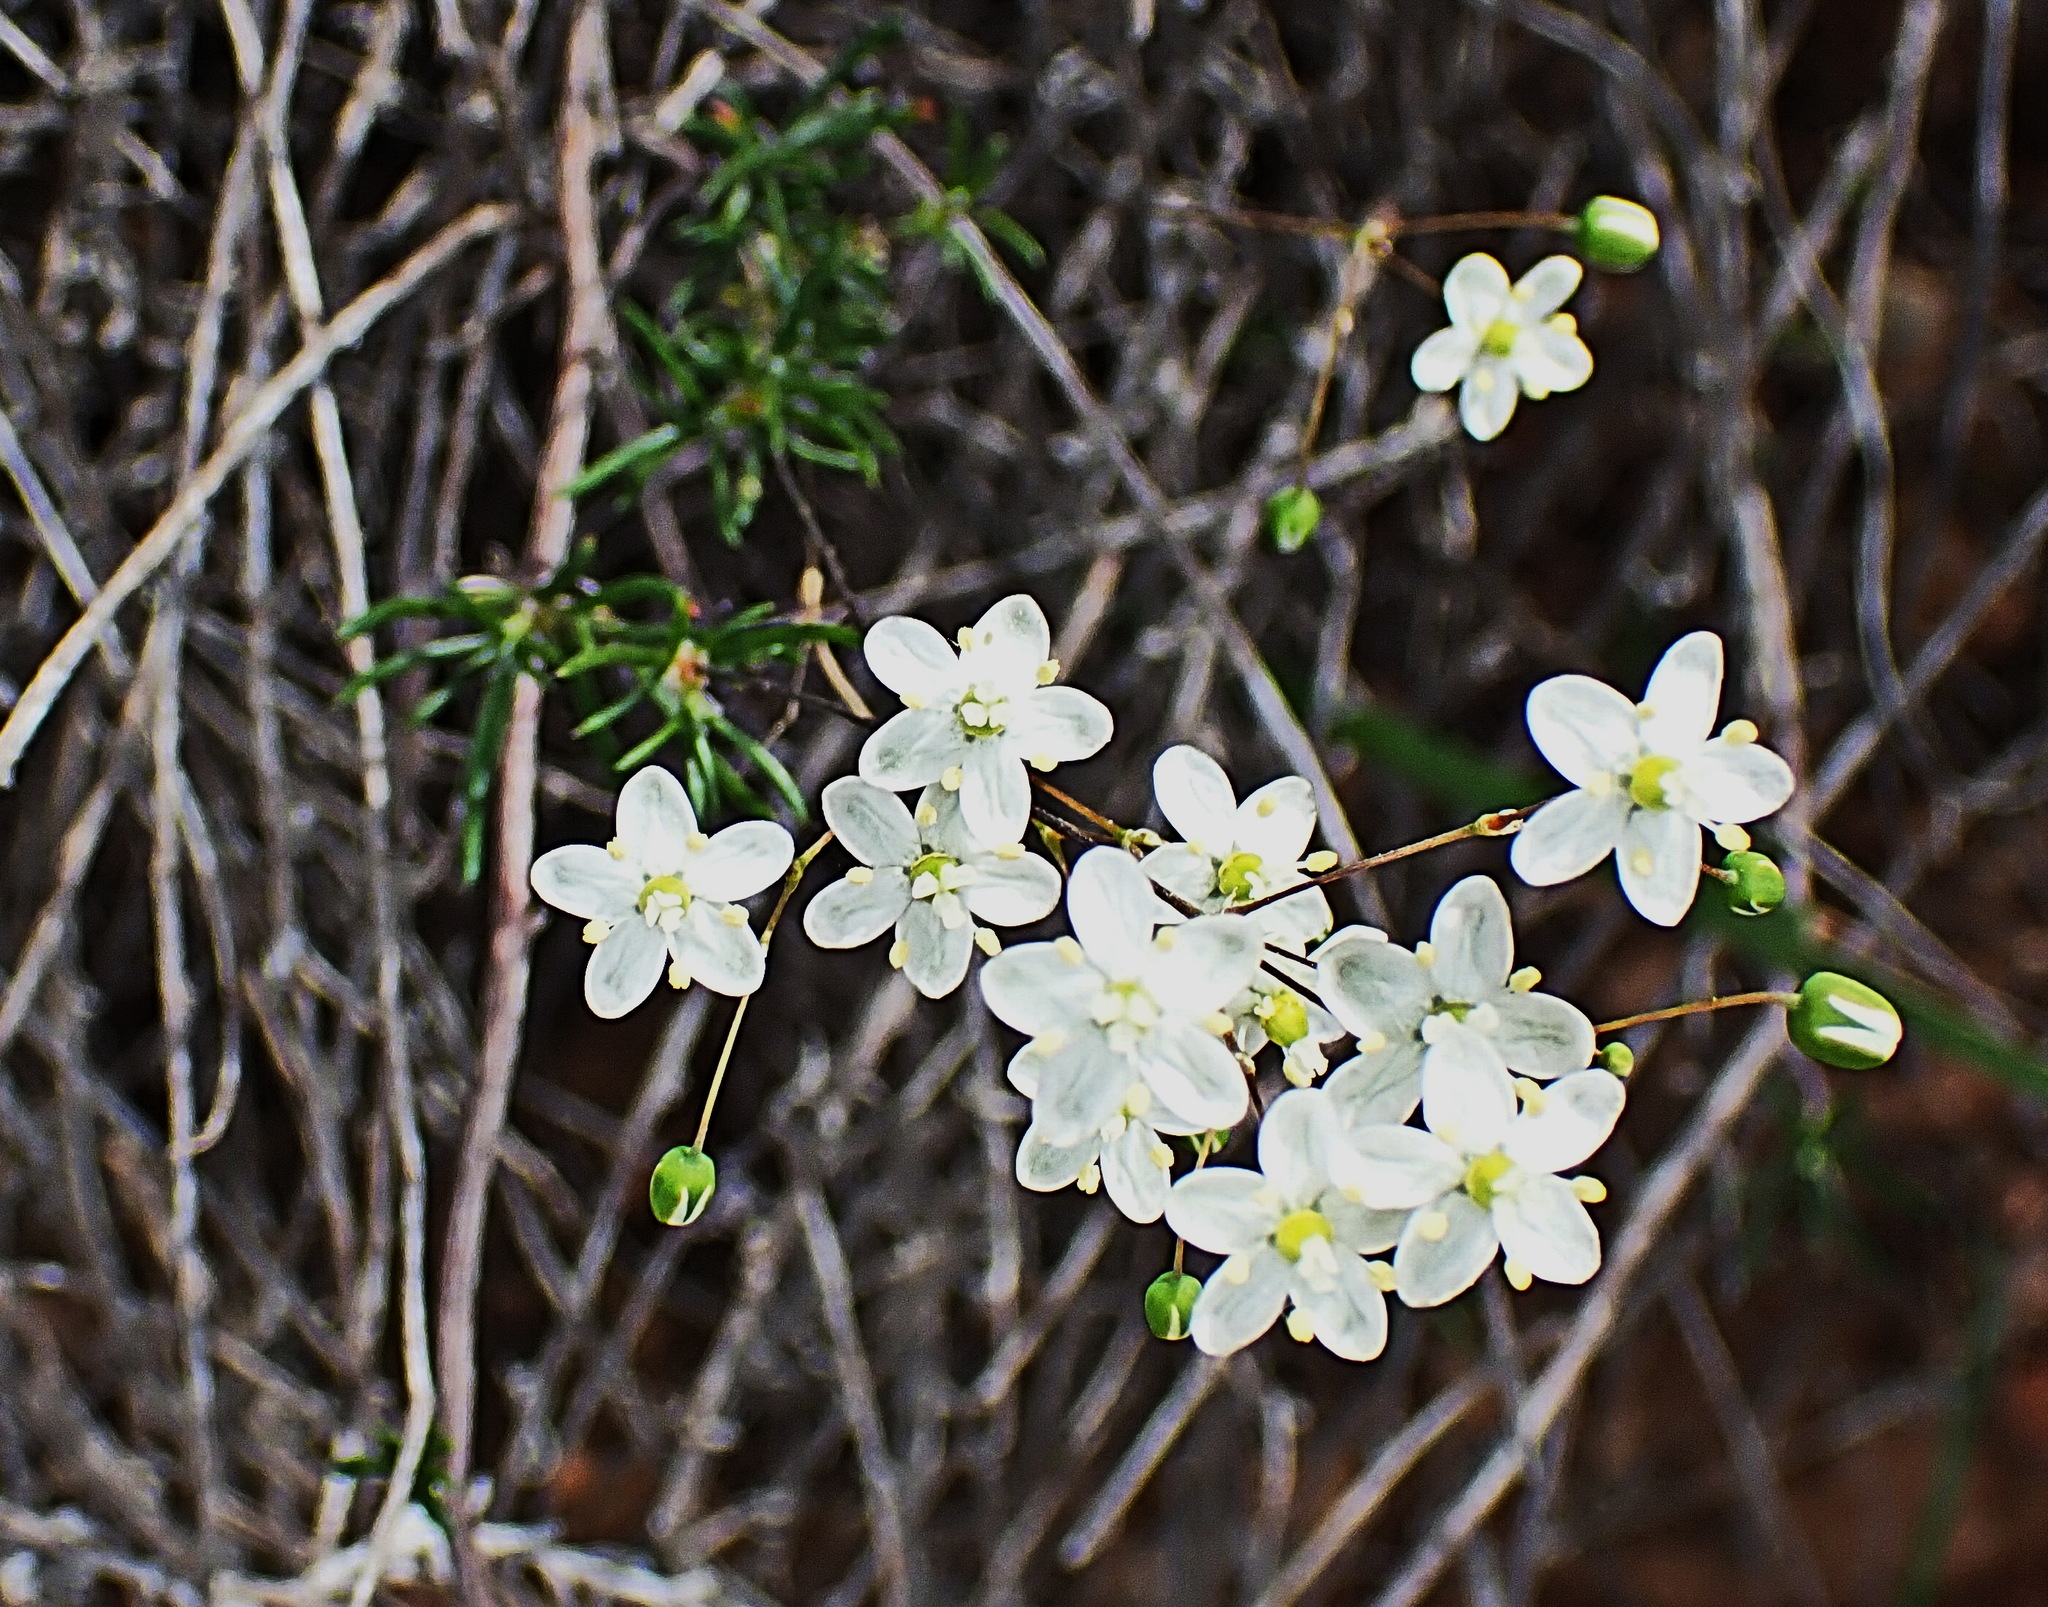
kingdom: Plantae
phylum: Tracheophyta
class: Magnoliopsida
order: Caryophyllales
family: Molluginaceae
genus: Pharnaceum
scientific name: Pharnaceum aurantium
